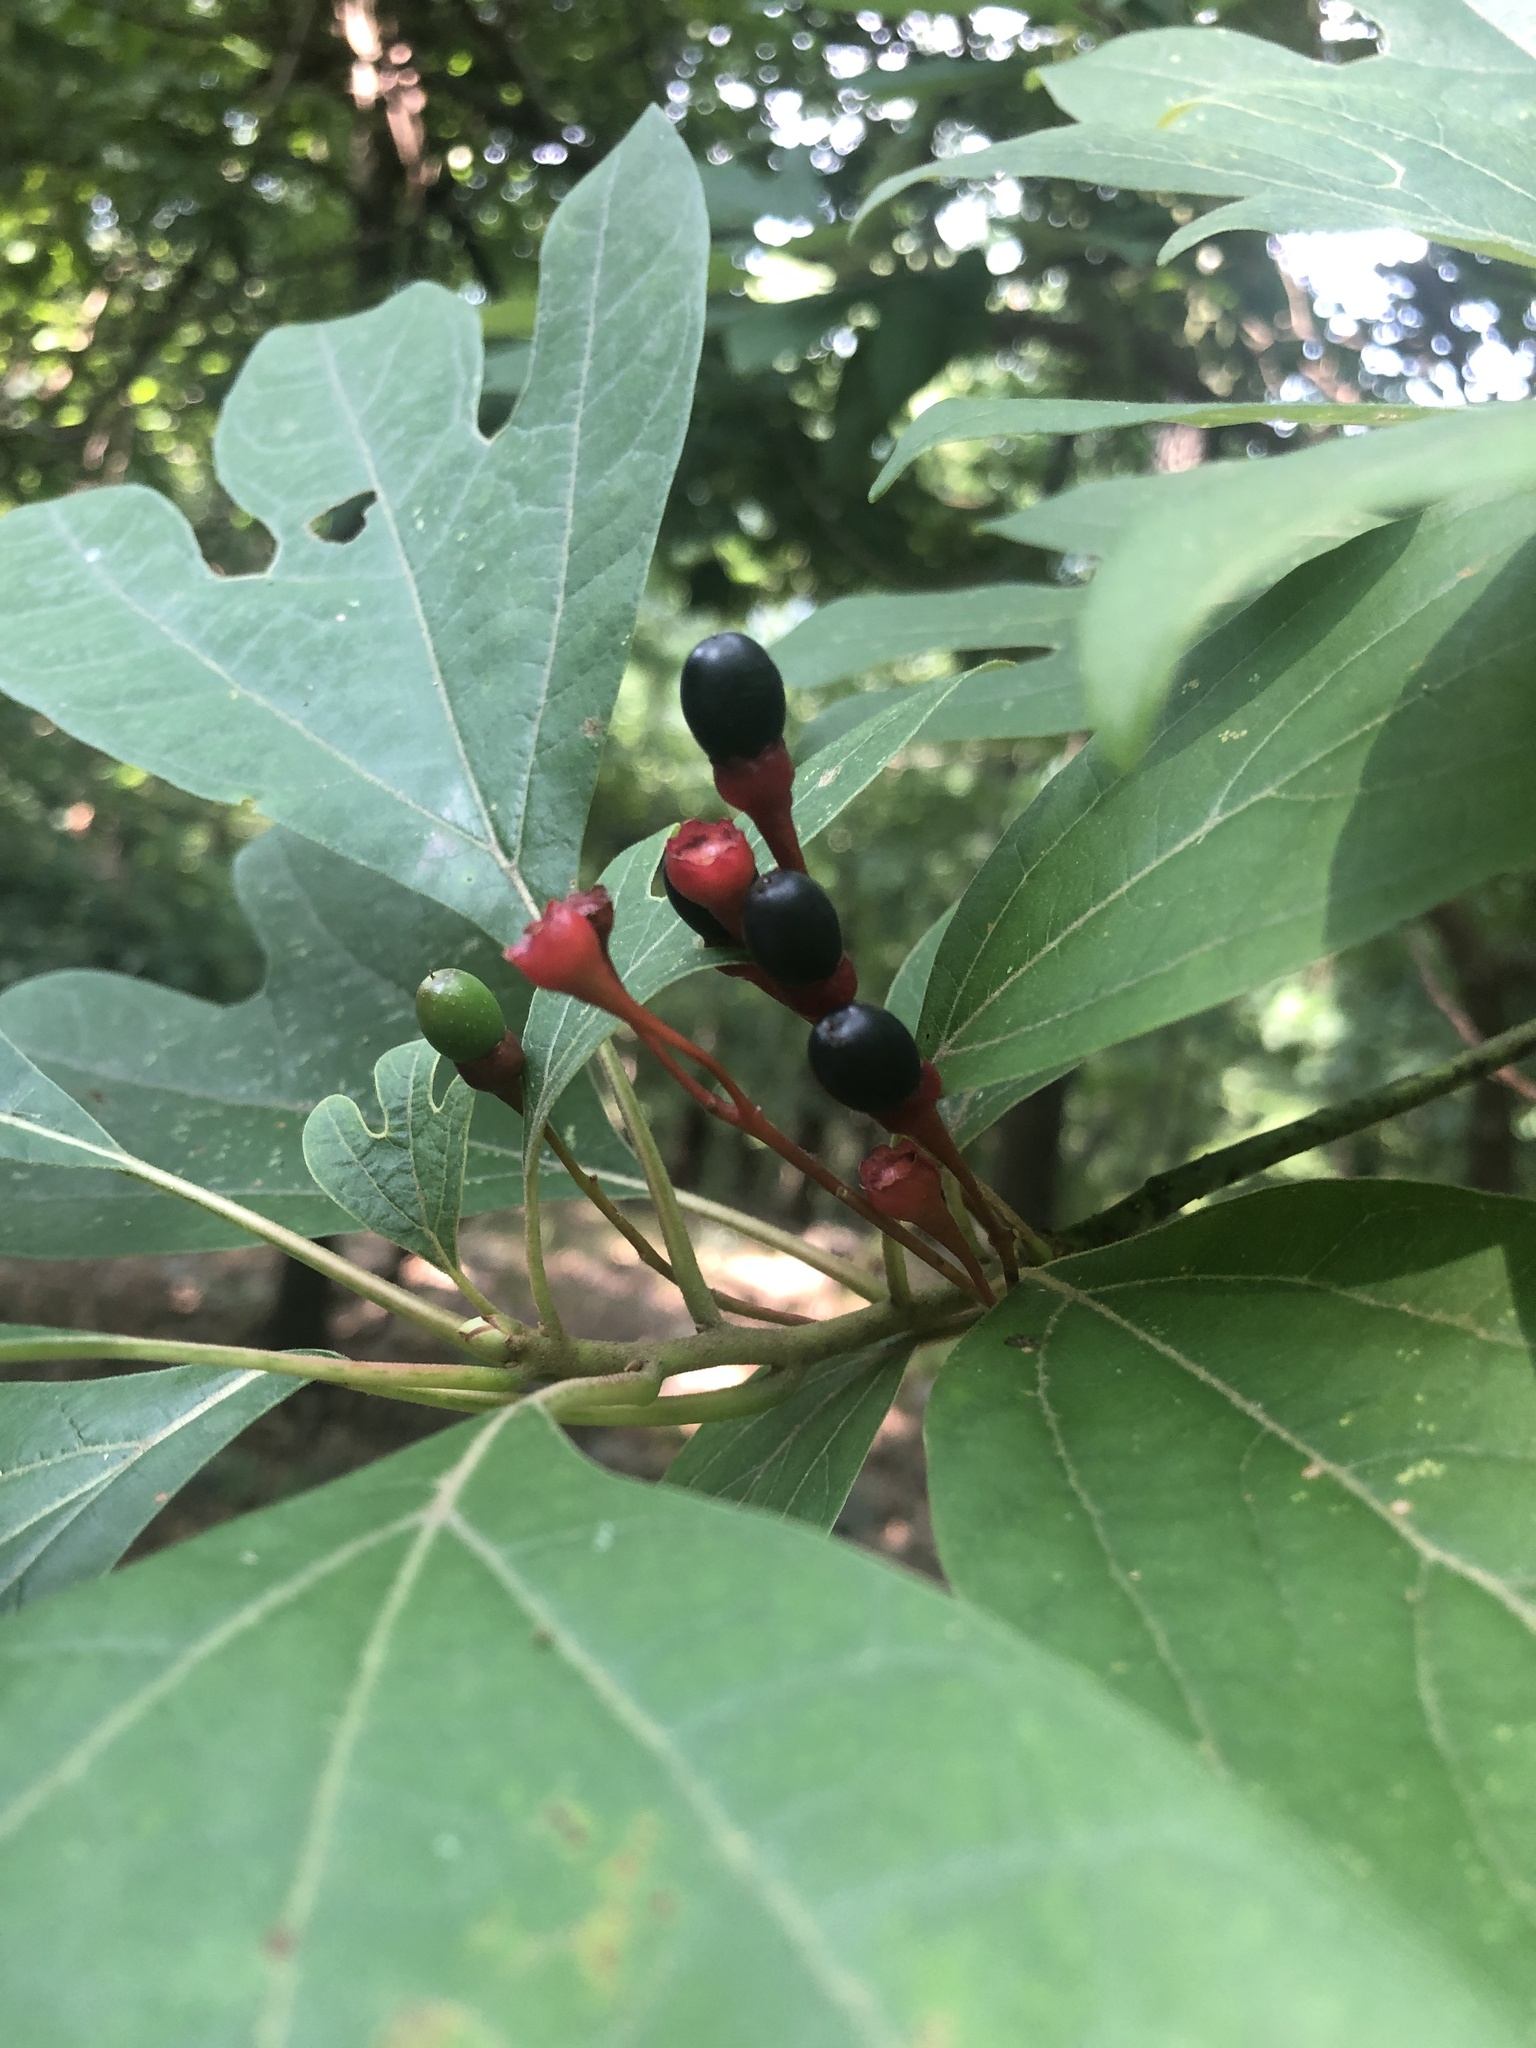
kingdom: Plantae
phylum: Tracheophyta
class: Magnoliopsida
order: Laurales
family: Lauraceae
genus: Sassafras
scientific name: Sassafras albidum
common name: Sassafras
